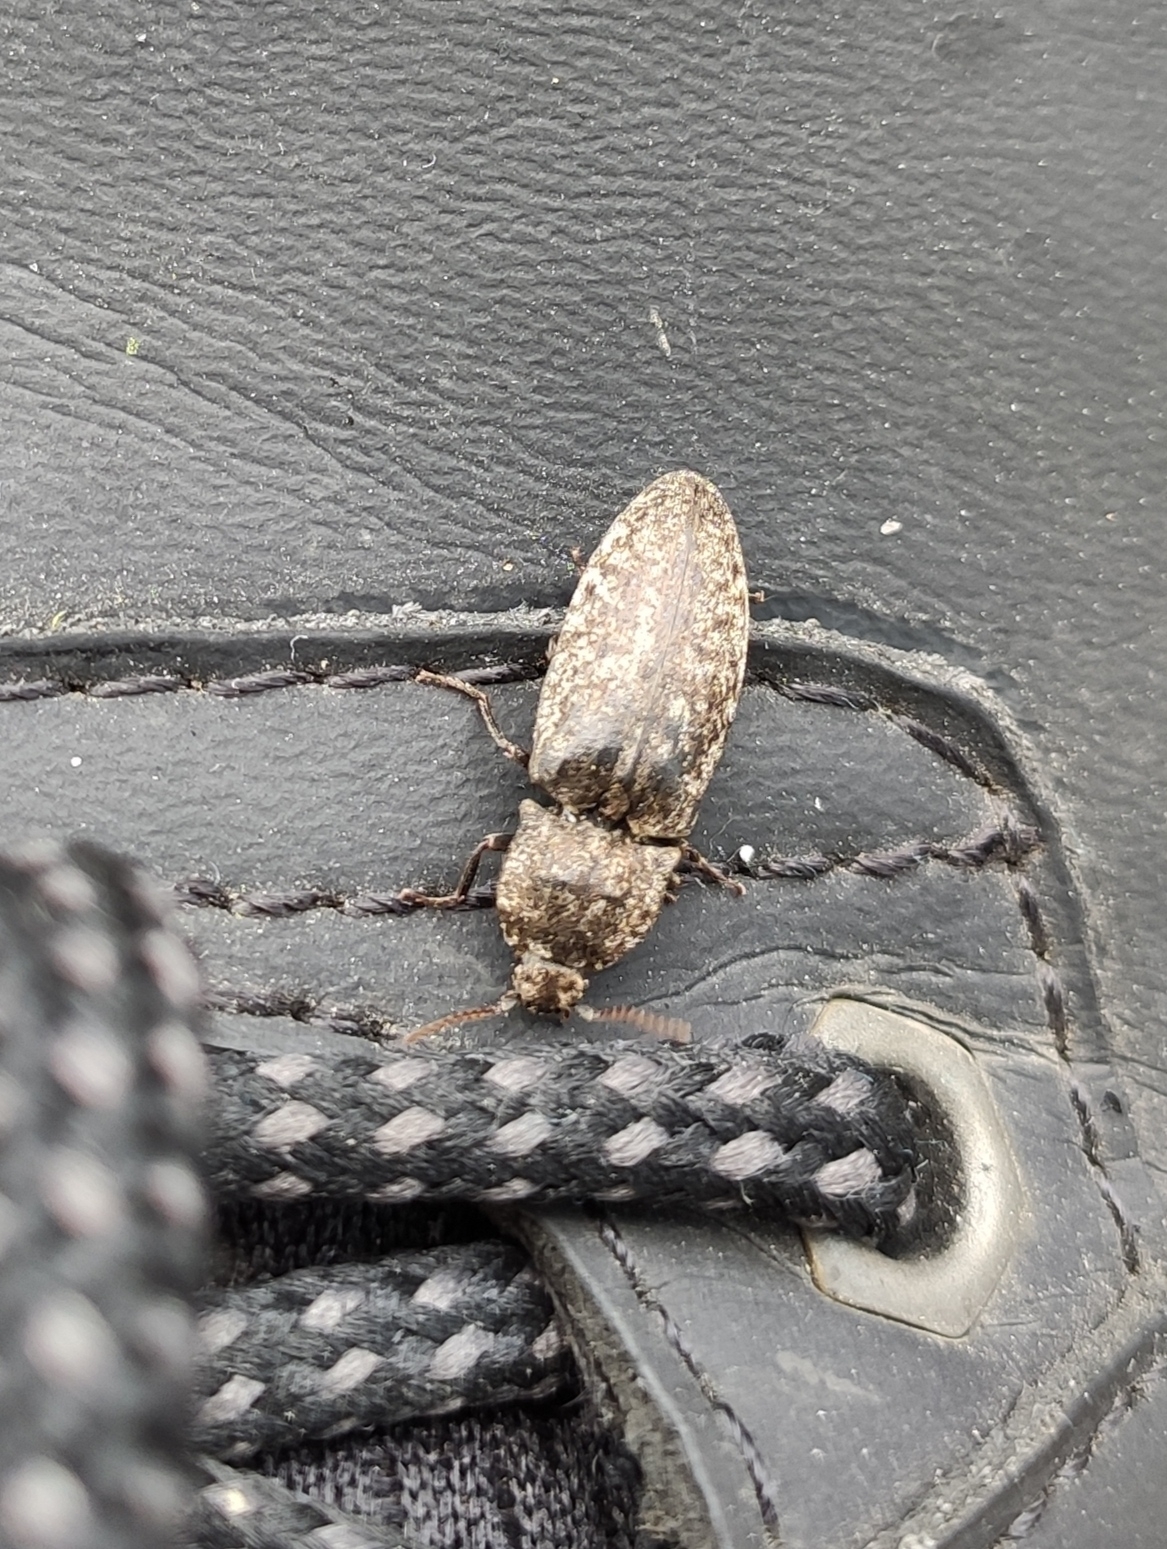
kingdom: Animalia
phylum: Arthropoda
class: Insecta
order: Coleoptera
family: Elateridae
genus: Agrypnus
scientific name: Agrypnus murinus
